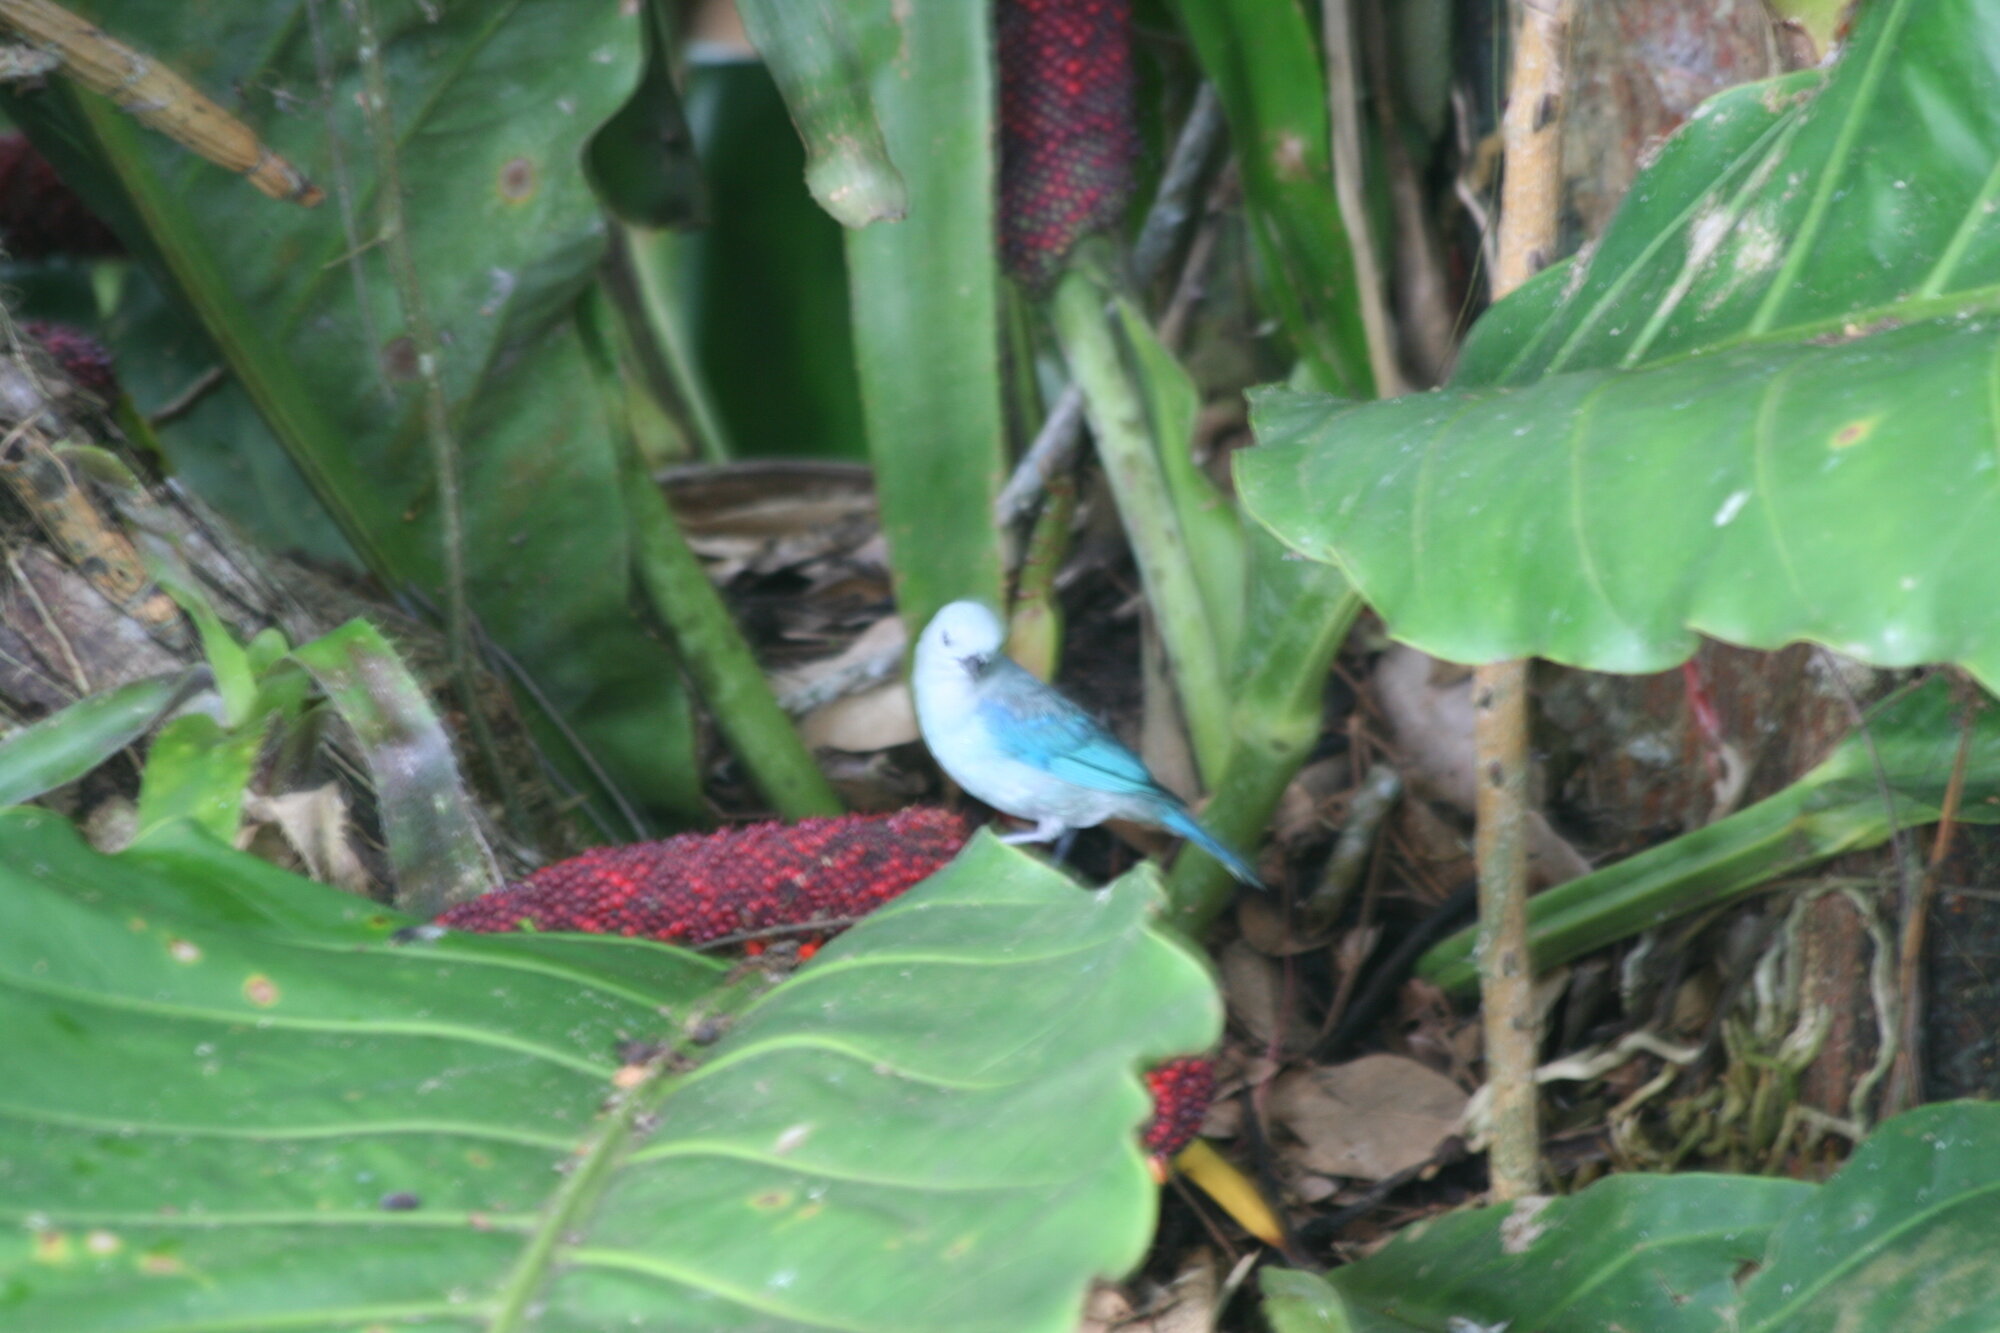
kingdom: Animalia
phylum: Chordata
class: Aves
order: Passeriformes
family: Thraupidae
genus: Thraupis
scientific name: Thraupis episcopus
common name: Blue-grey tanager
